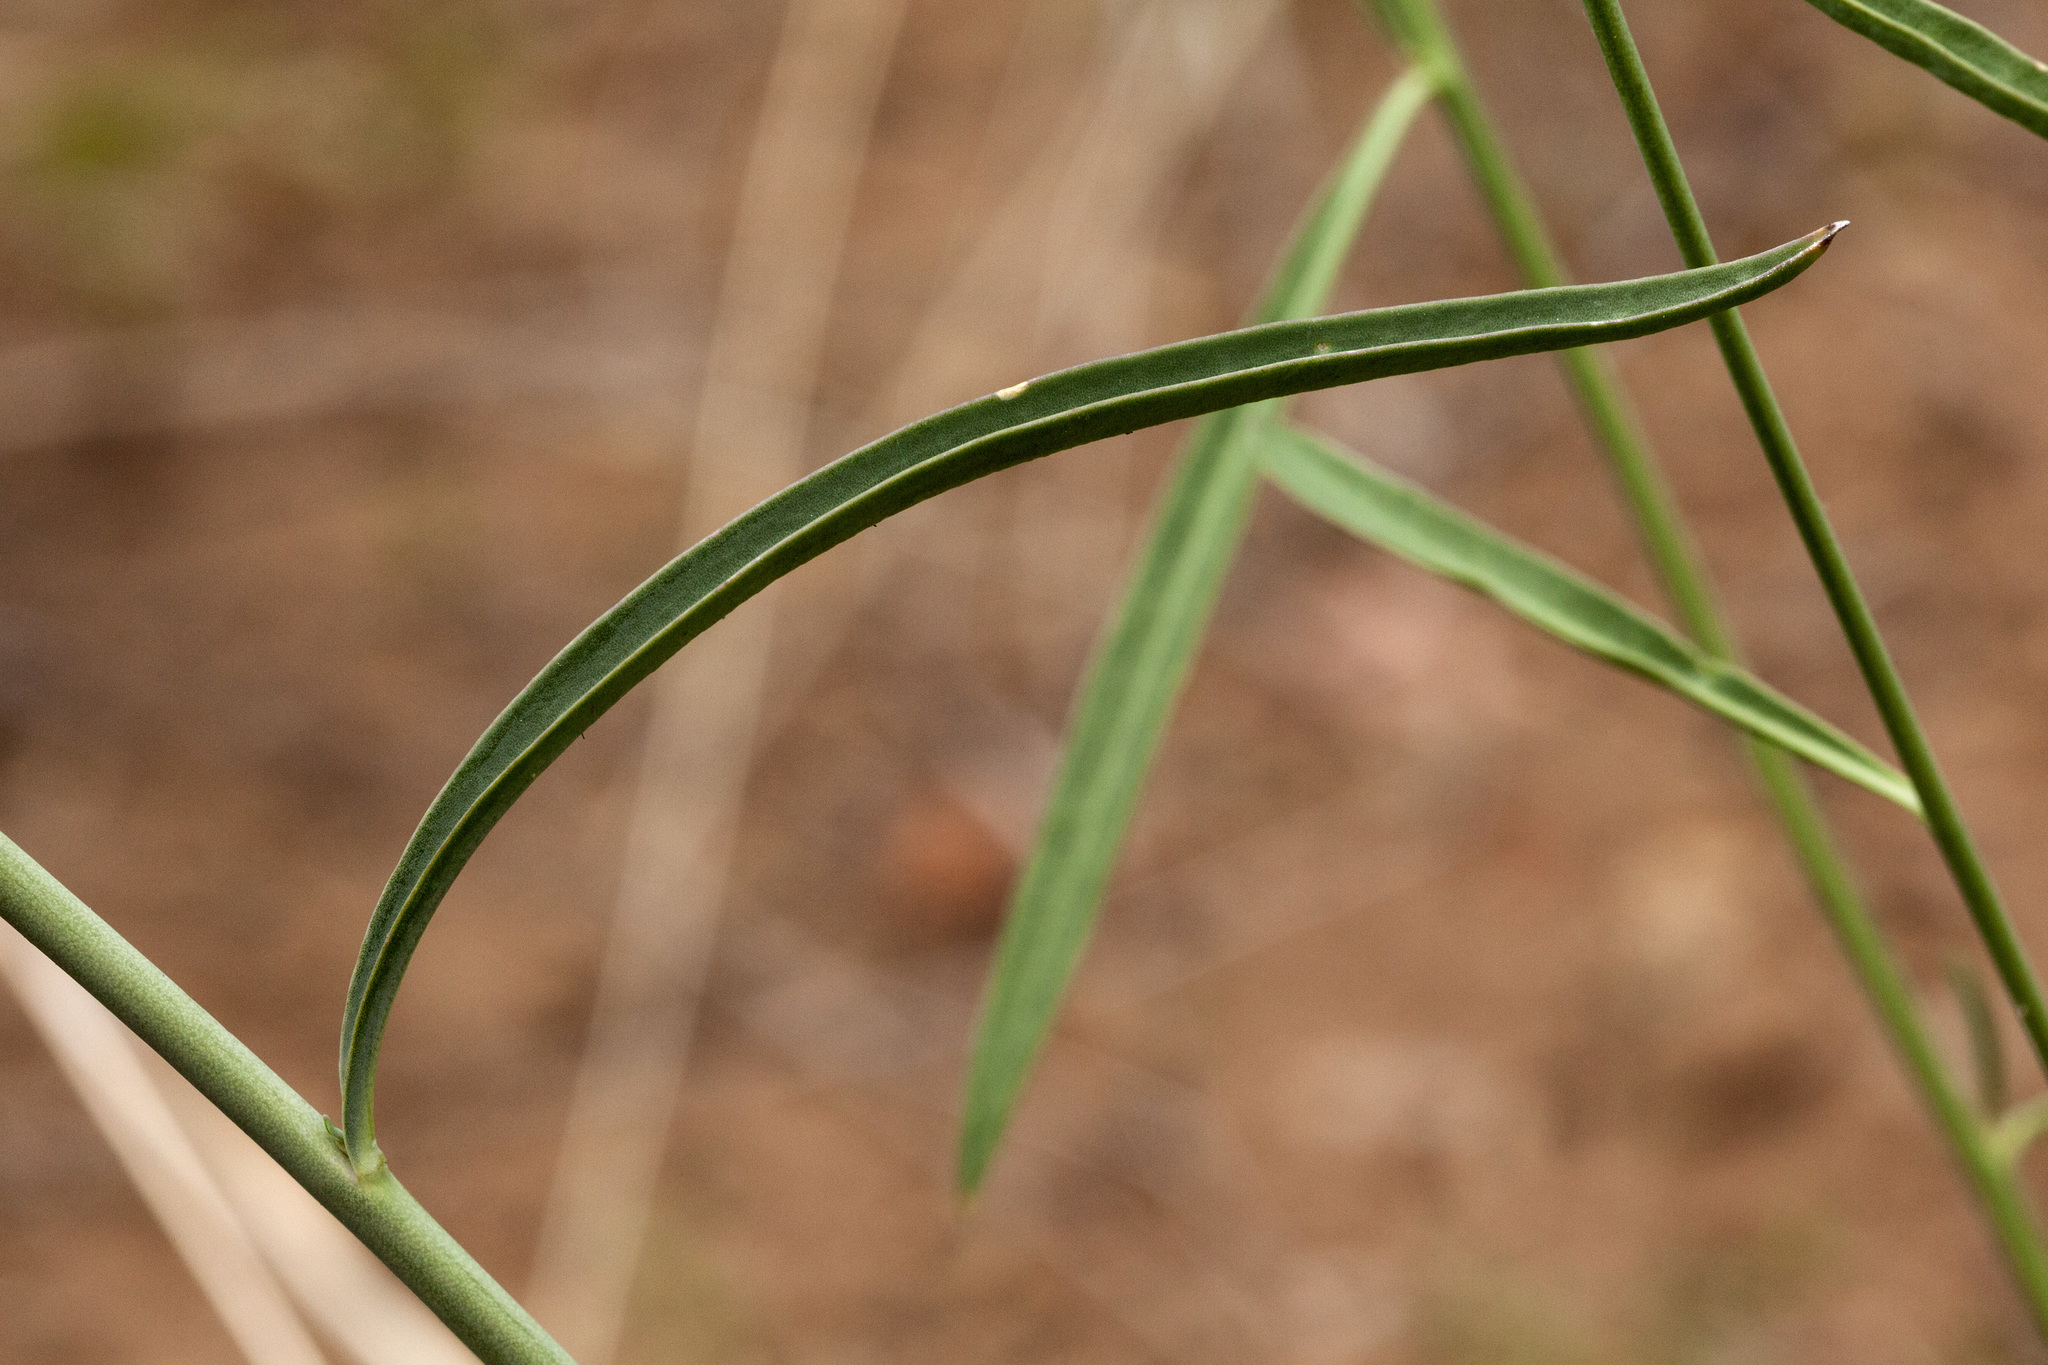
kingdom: Plantae
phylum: Tracheophyta
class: Magnoliopsida
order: Brassicales
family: Brassicaceae
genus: Hesperidanthus
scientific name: Hesperidanthus linearifolius
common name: Slim-leaf plains mustard
